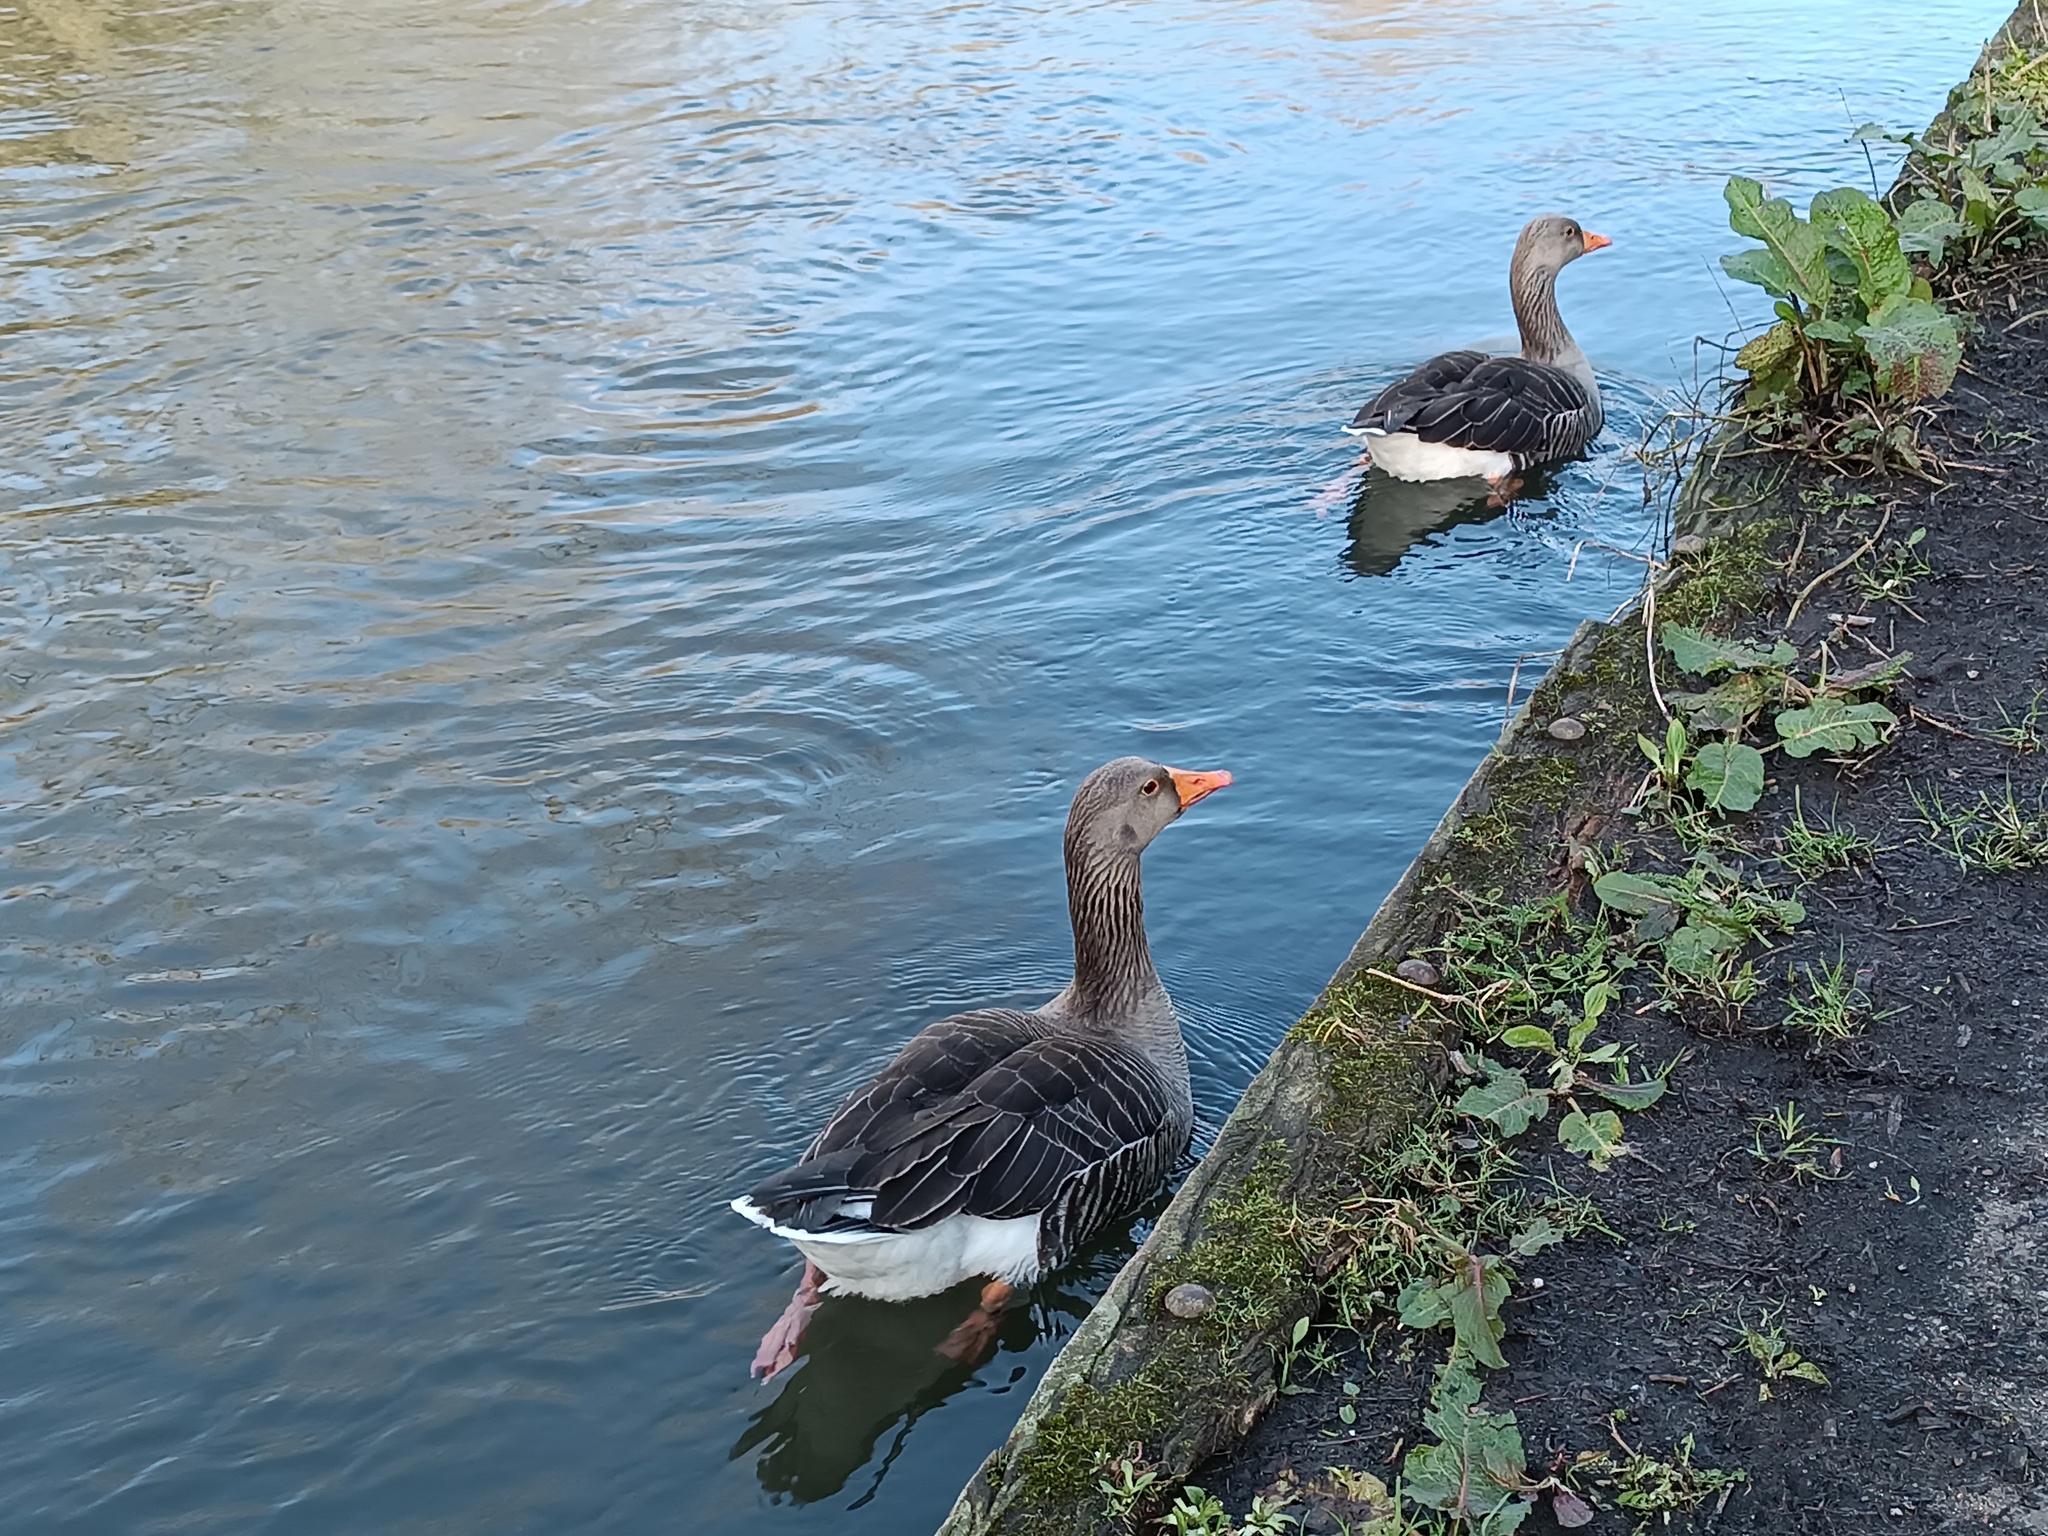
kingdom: Animalia
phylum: Chordata
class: Aves
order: Anseriformes
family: Anatidae
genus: Anser
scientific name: Anser anser
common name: Greylag goose
